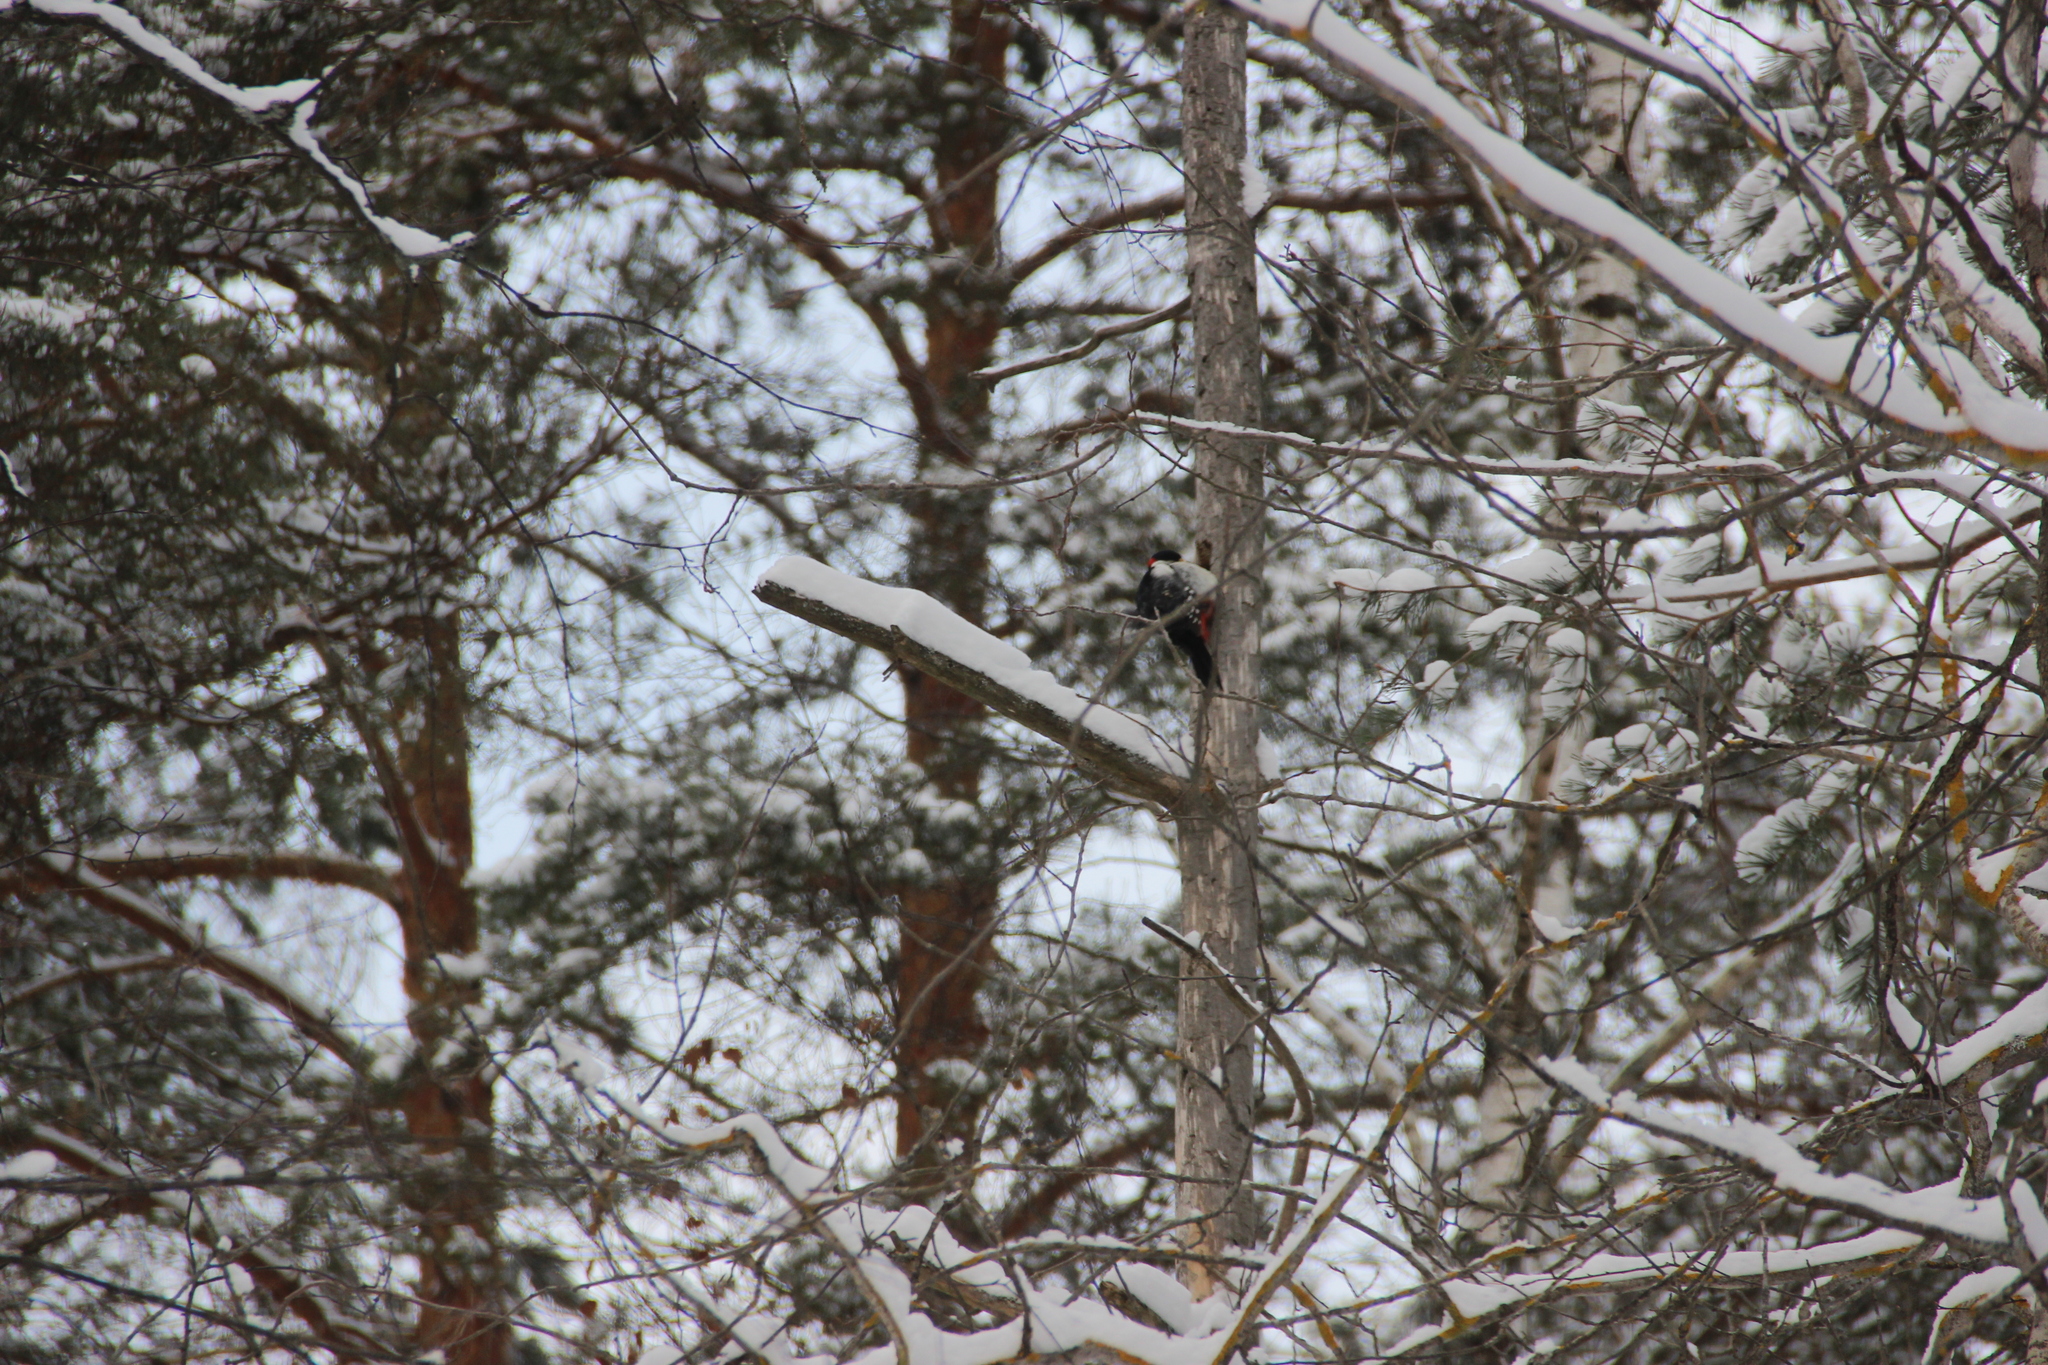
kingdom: Animalia
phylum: Chordata
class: Aves
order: Piciformes
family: Picidae
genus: Dendrocopos
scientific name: Dendrocopos major
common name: Great spotted woodpecker
